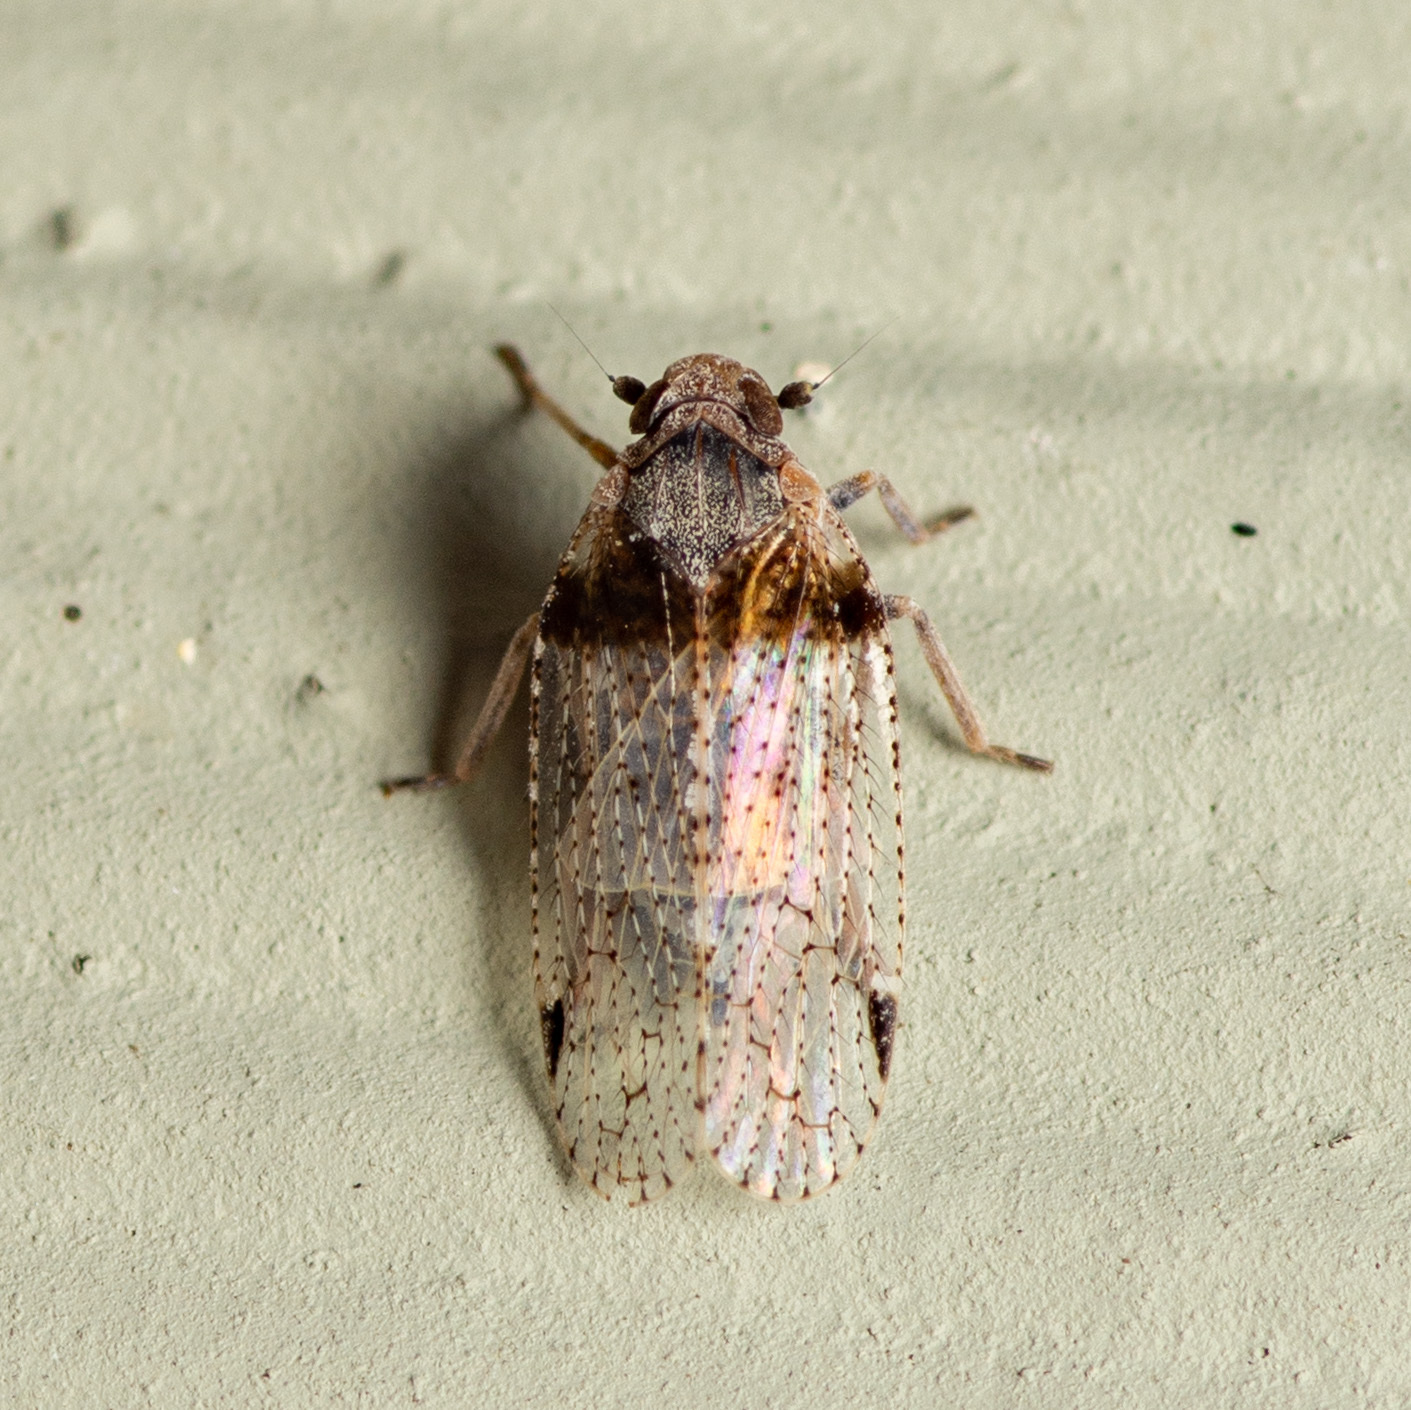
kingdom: Animalia
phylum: Arthropoda
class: Insecta
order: Hemiptera
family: Cixiidae
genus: Cixius
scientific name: Cixius stigmatus
